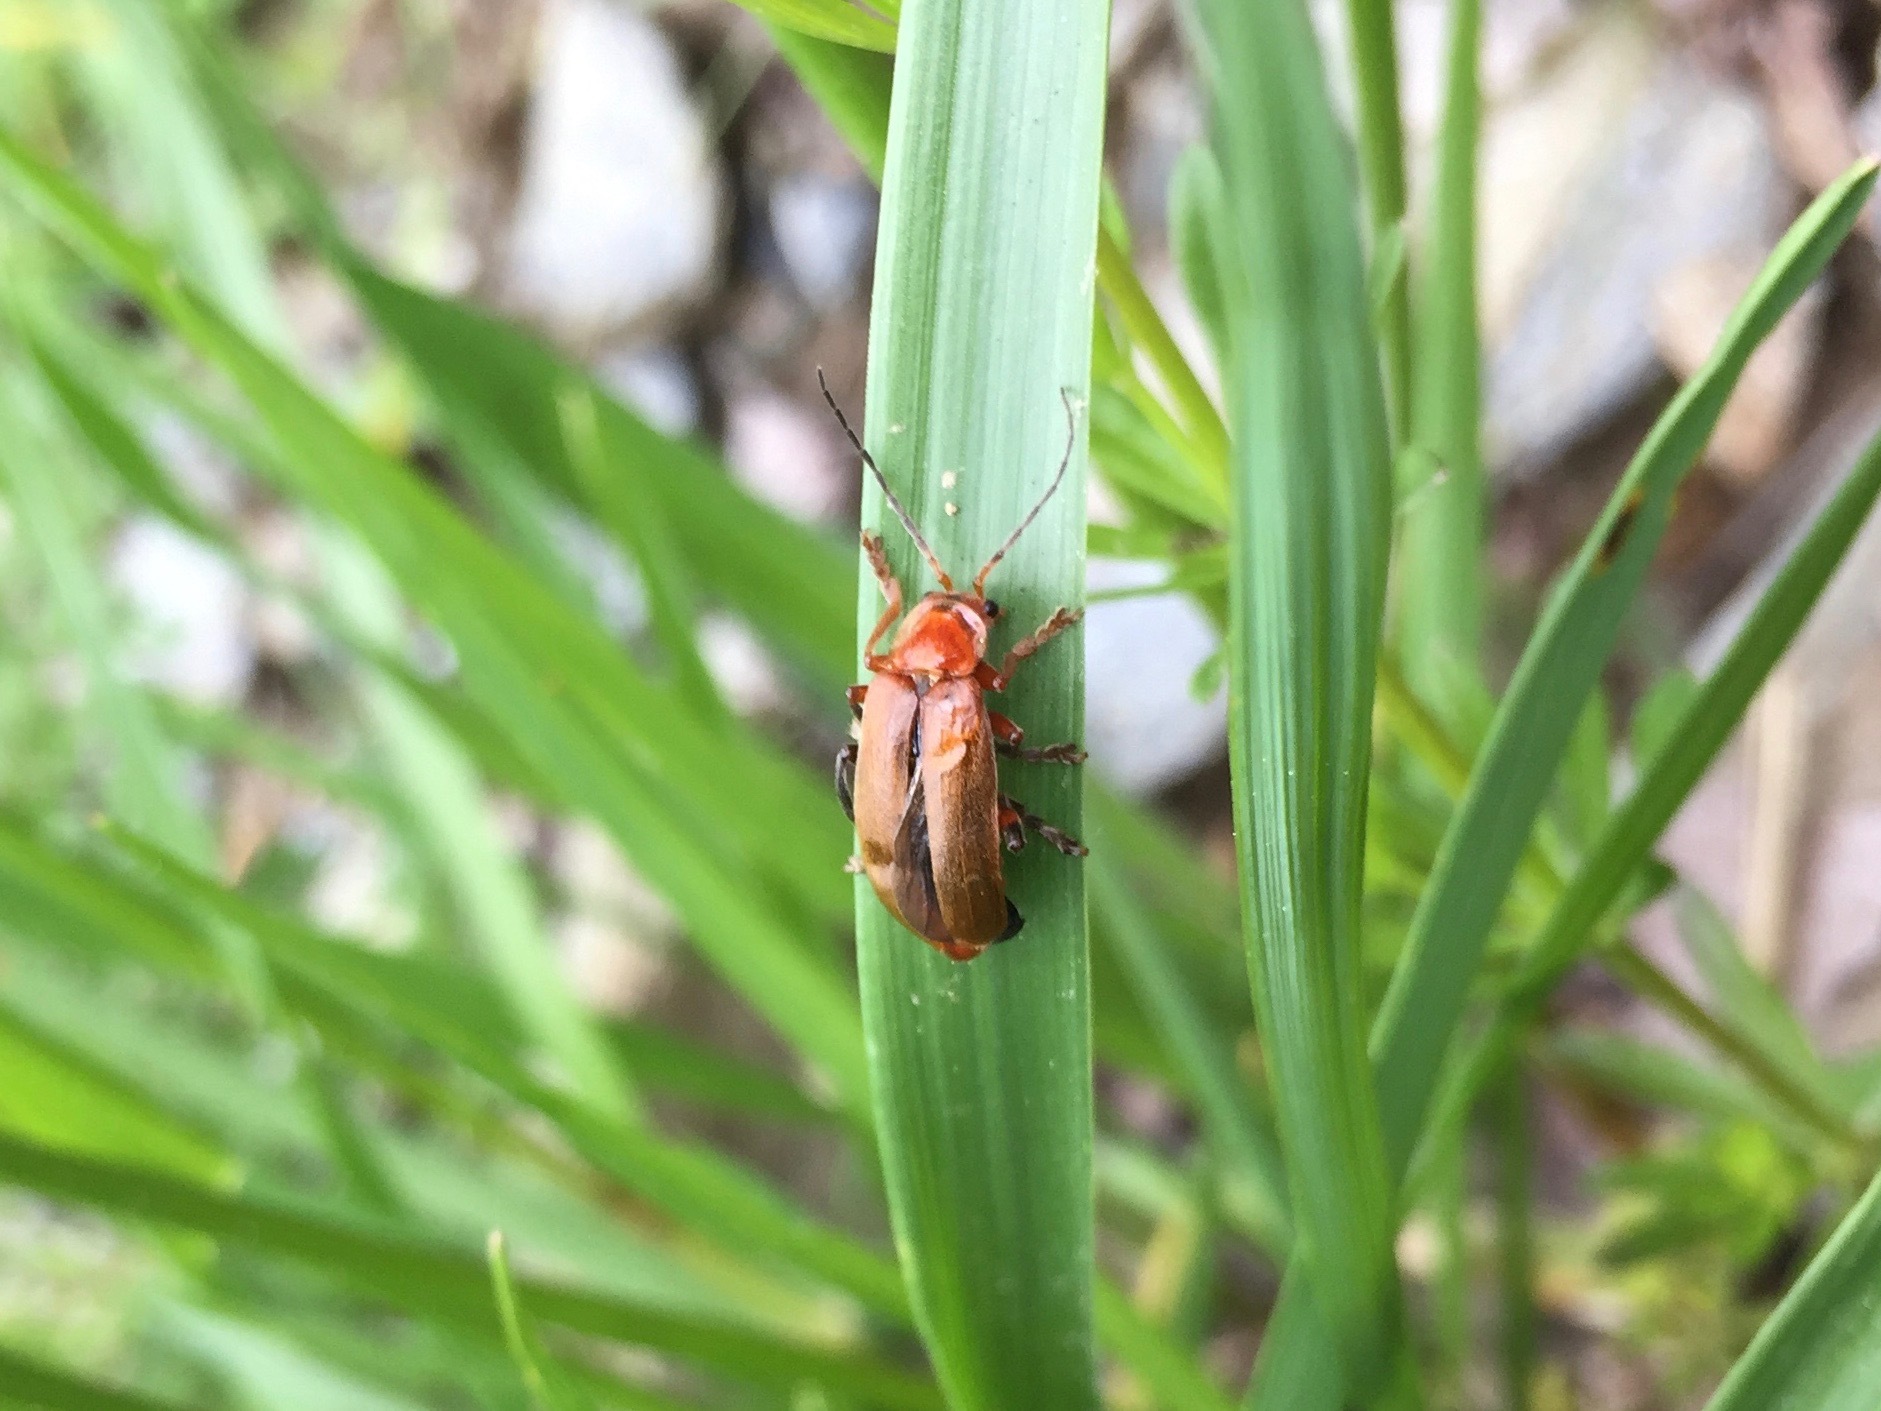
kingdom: Animalia
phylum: Arthropoda
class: Insecta
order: Coleoptera
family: Cantharidae
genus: Cantharis
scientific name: Cantharis livida
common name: Livid soldier beetle
